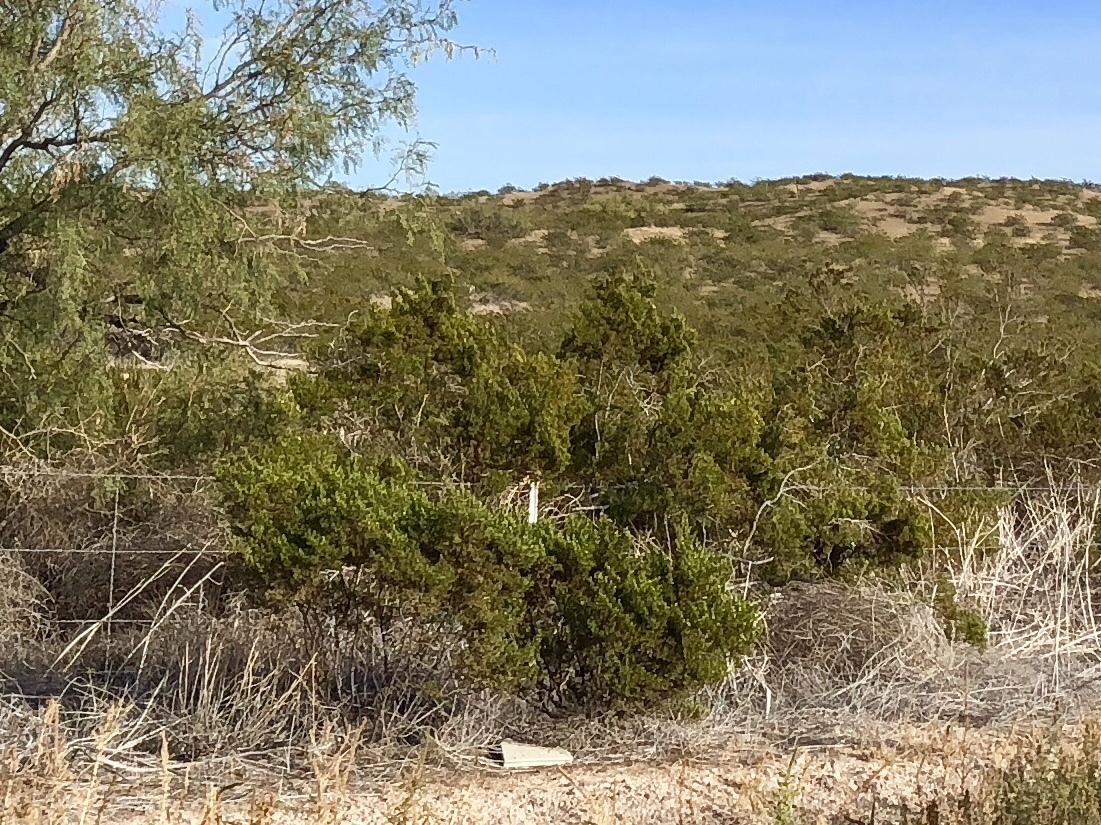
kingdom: Plantae
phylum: Tracheophyta
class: Magnoliopsida
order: Zygophyllales
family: Zygophyllaceae
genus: Larrea
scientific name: Larrea tridentata
